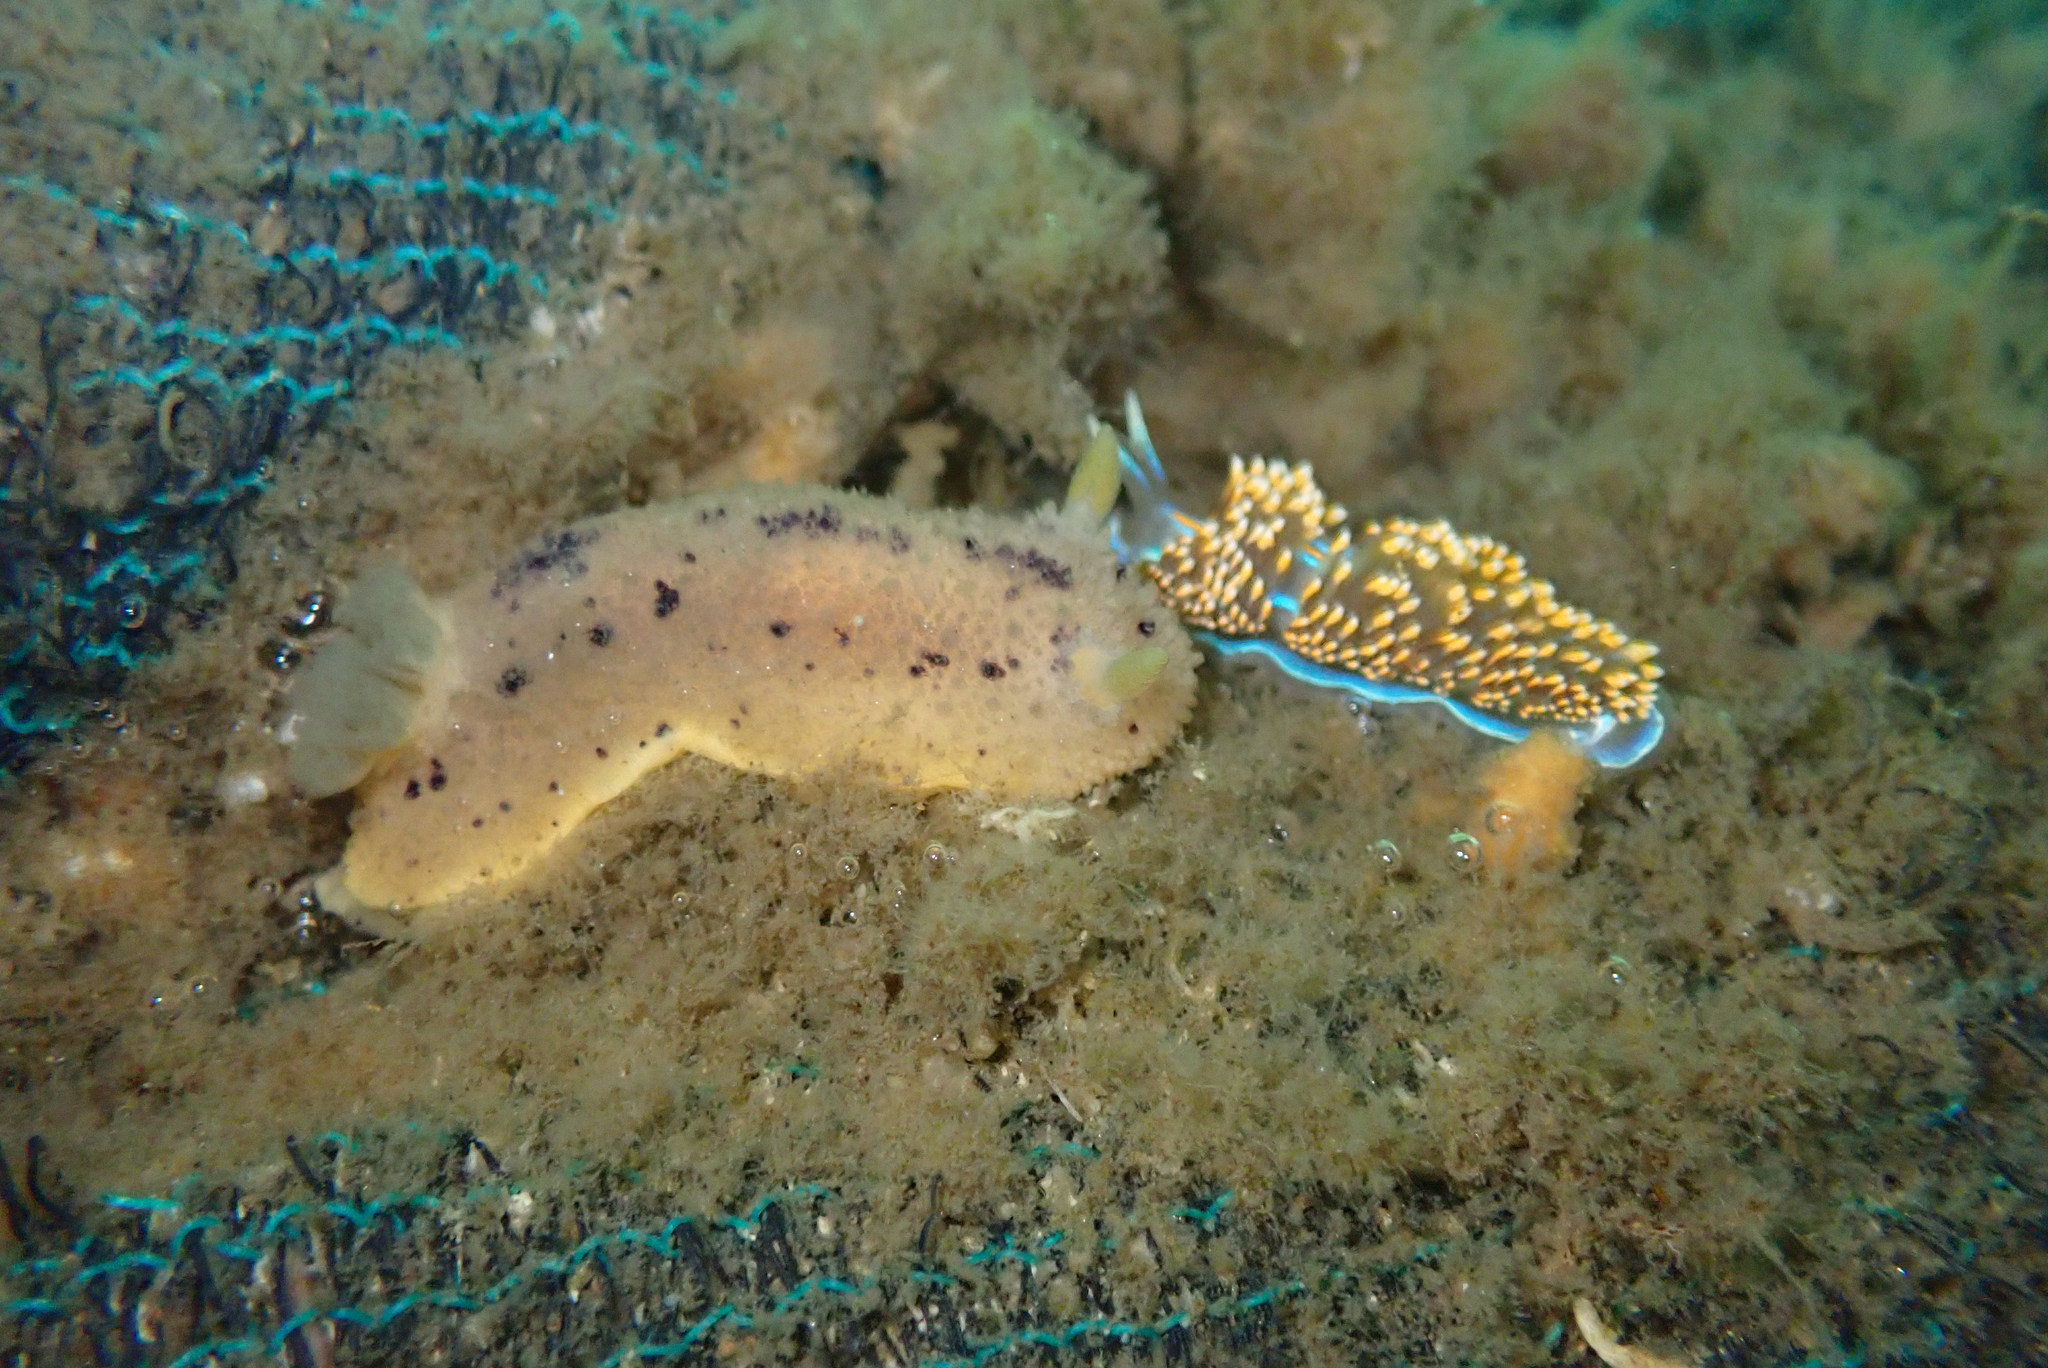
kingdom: Animalia
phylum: Mollusca
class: Gastropoda
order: Nudibranchia
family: Dorididae
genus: Doris
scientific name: Doris montereyensis
